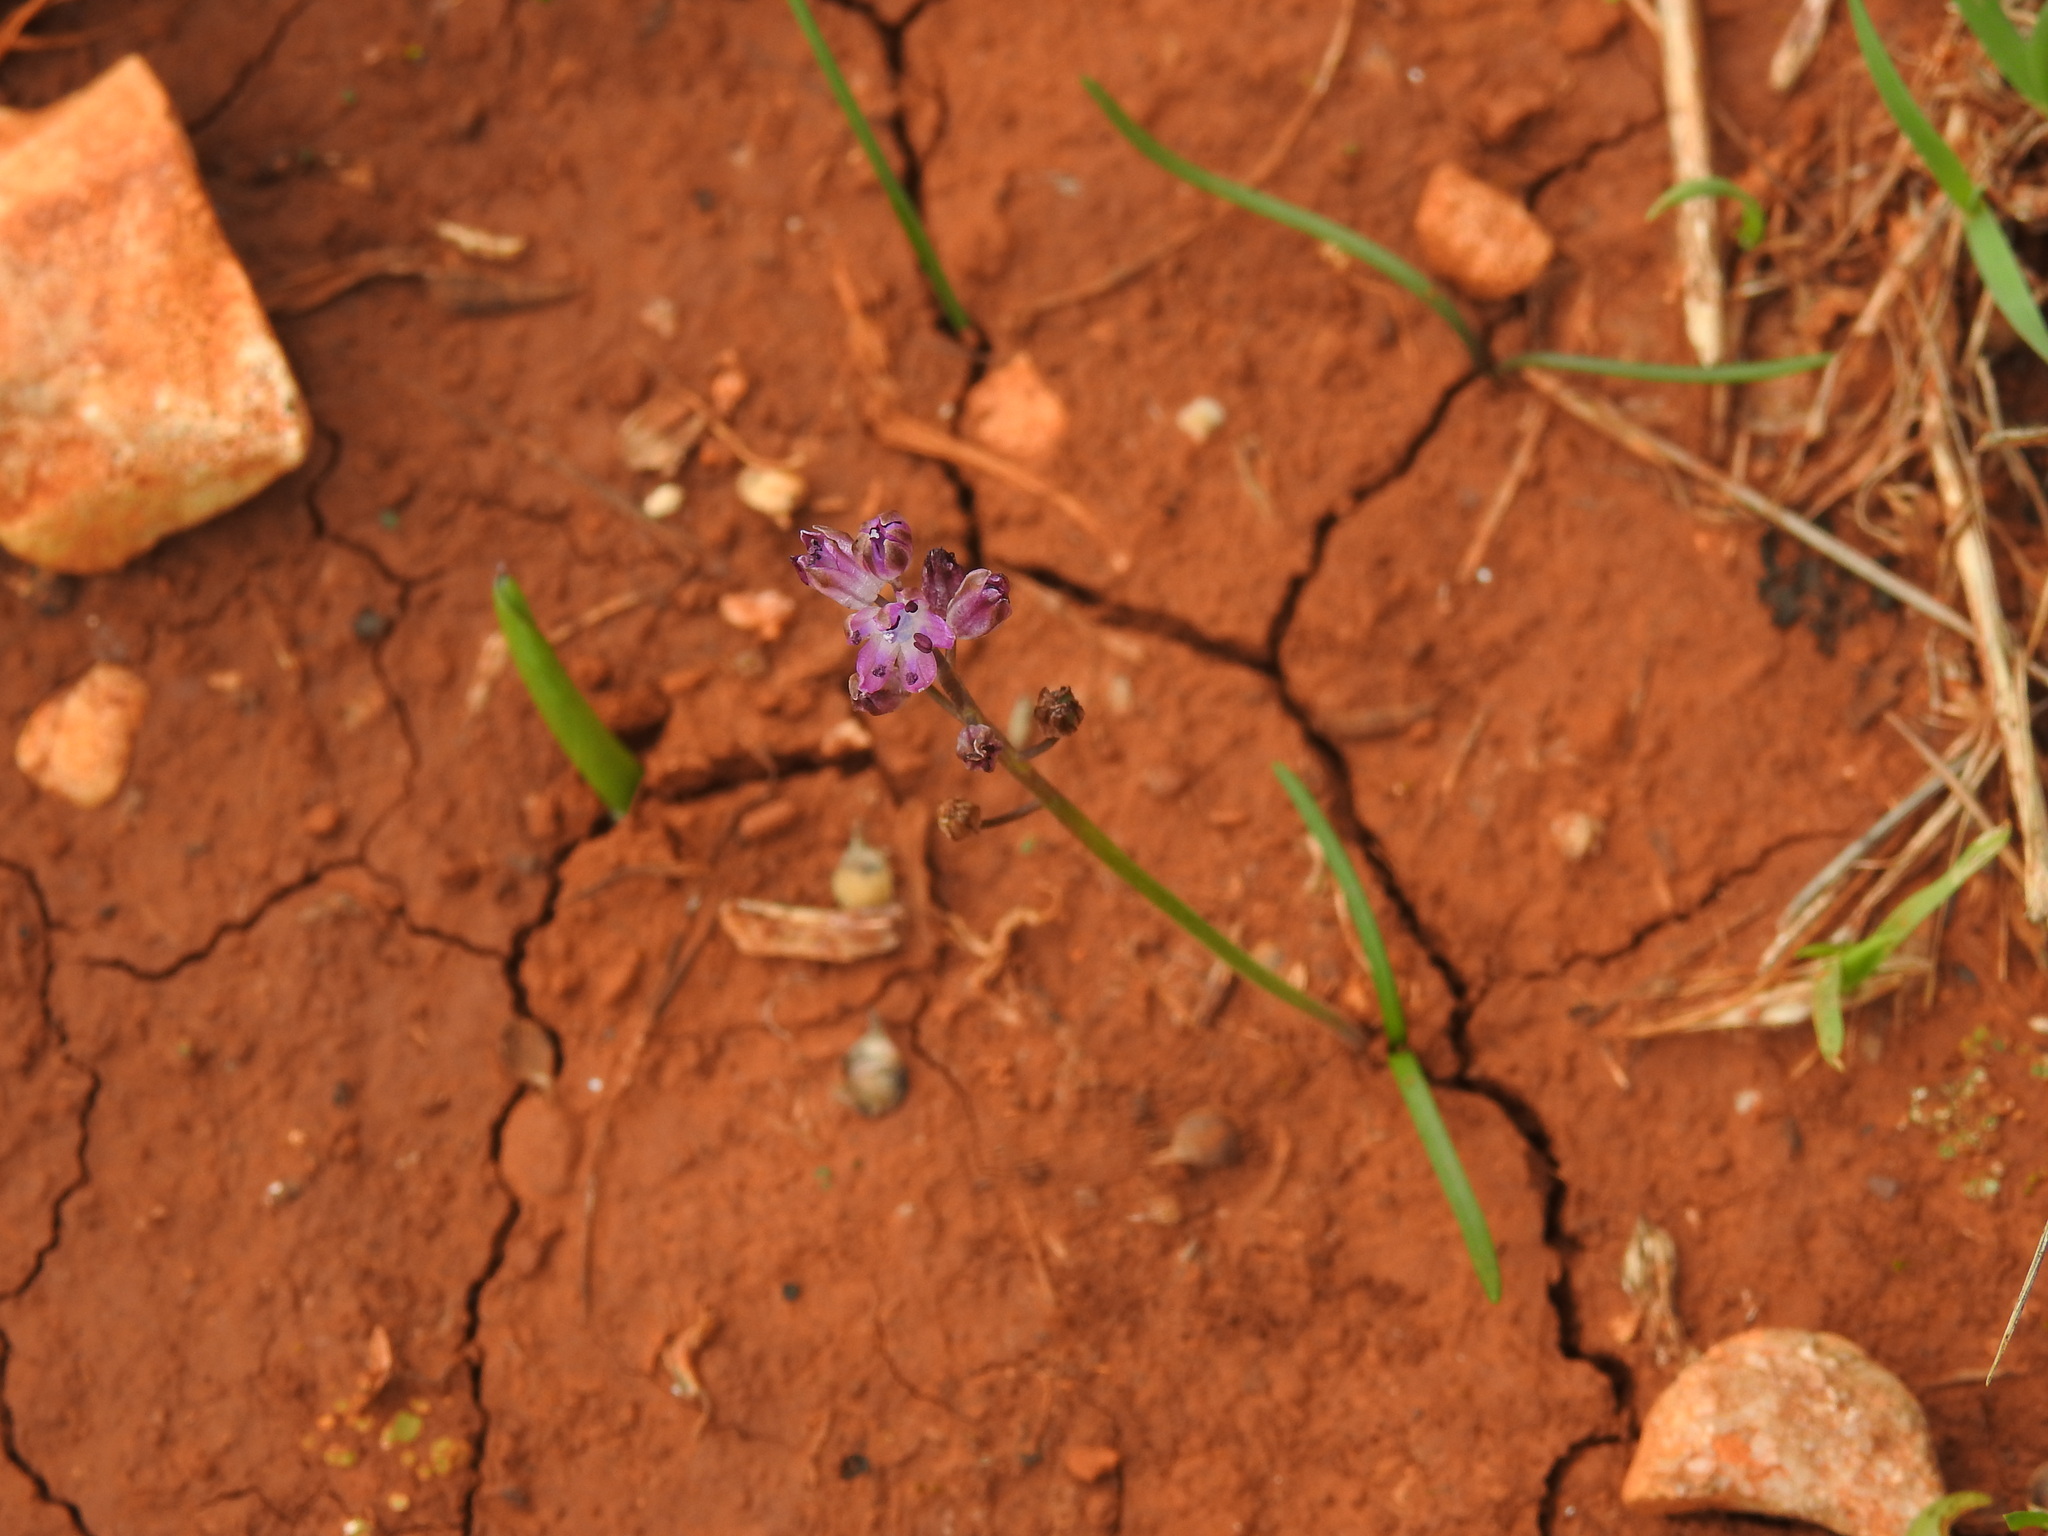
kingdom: Plantae
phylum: Tracheophyta
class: Liliopsida
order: Asparagales
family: Asparagaceae
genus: Prospero
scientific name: Prospero autumnale
